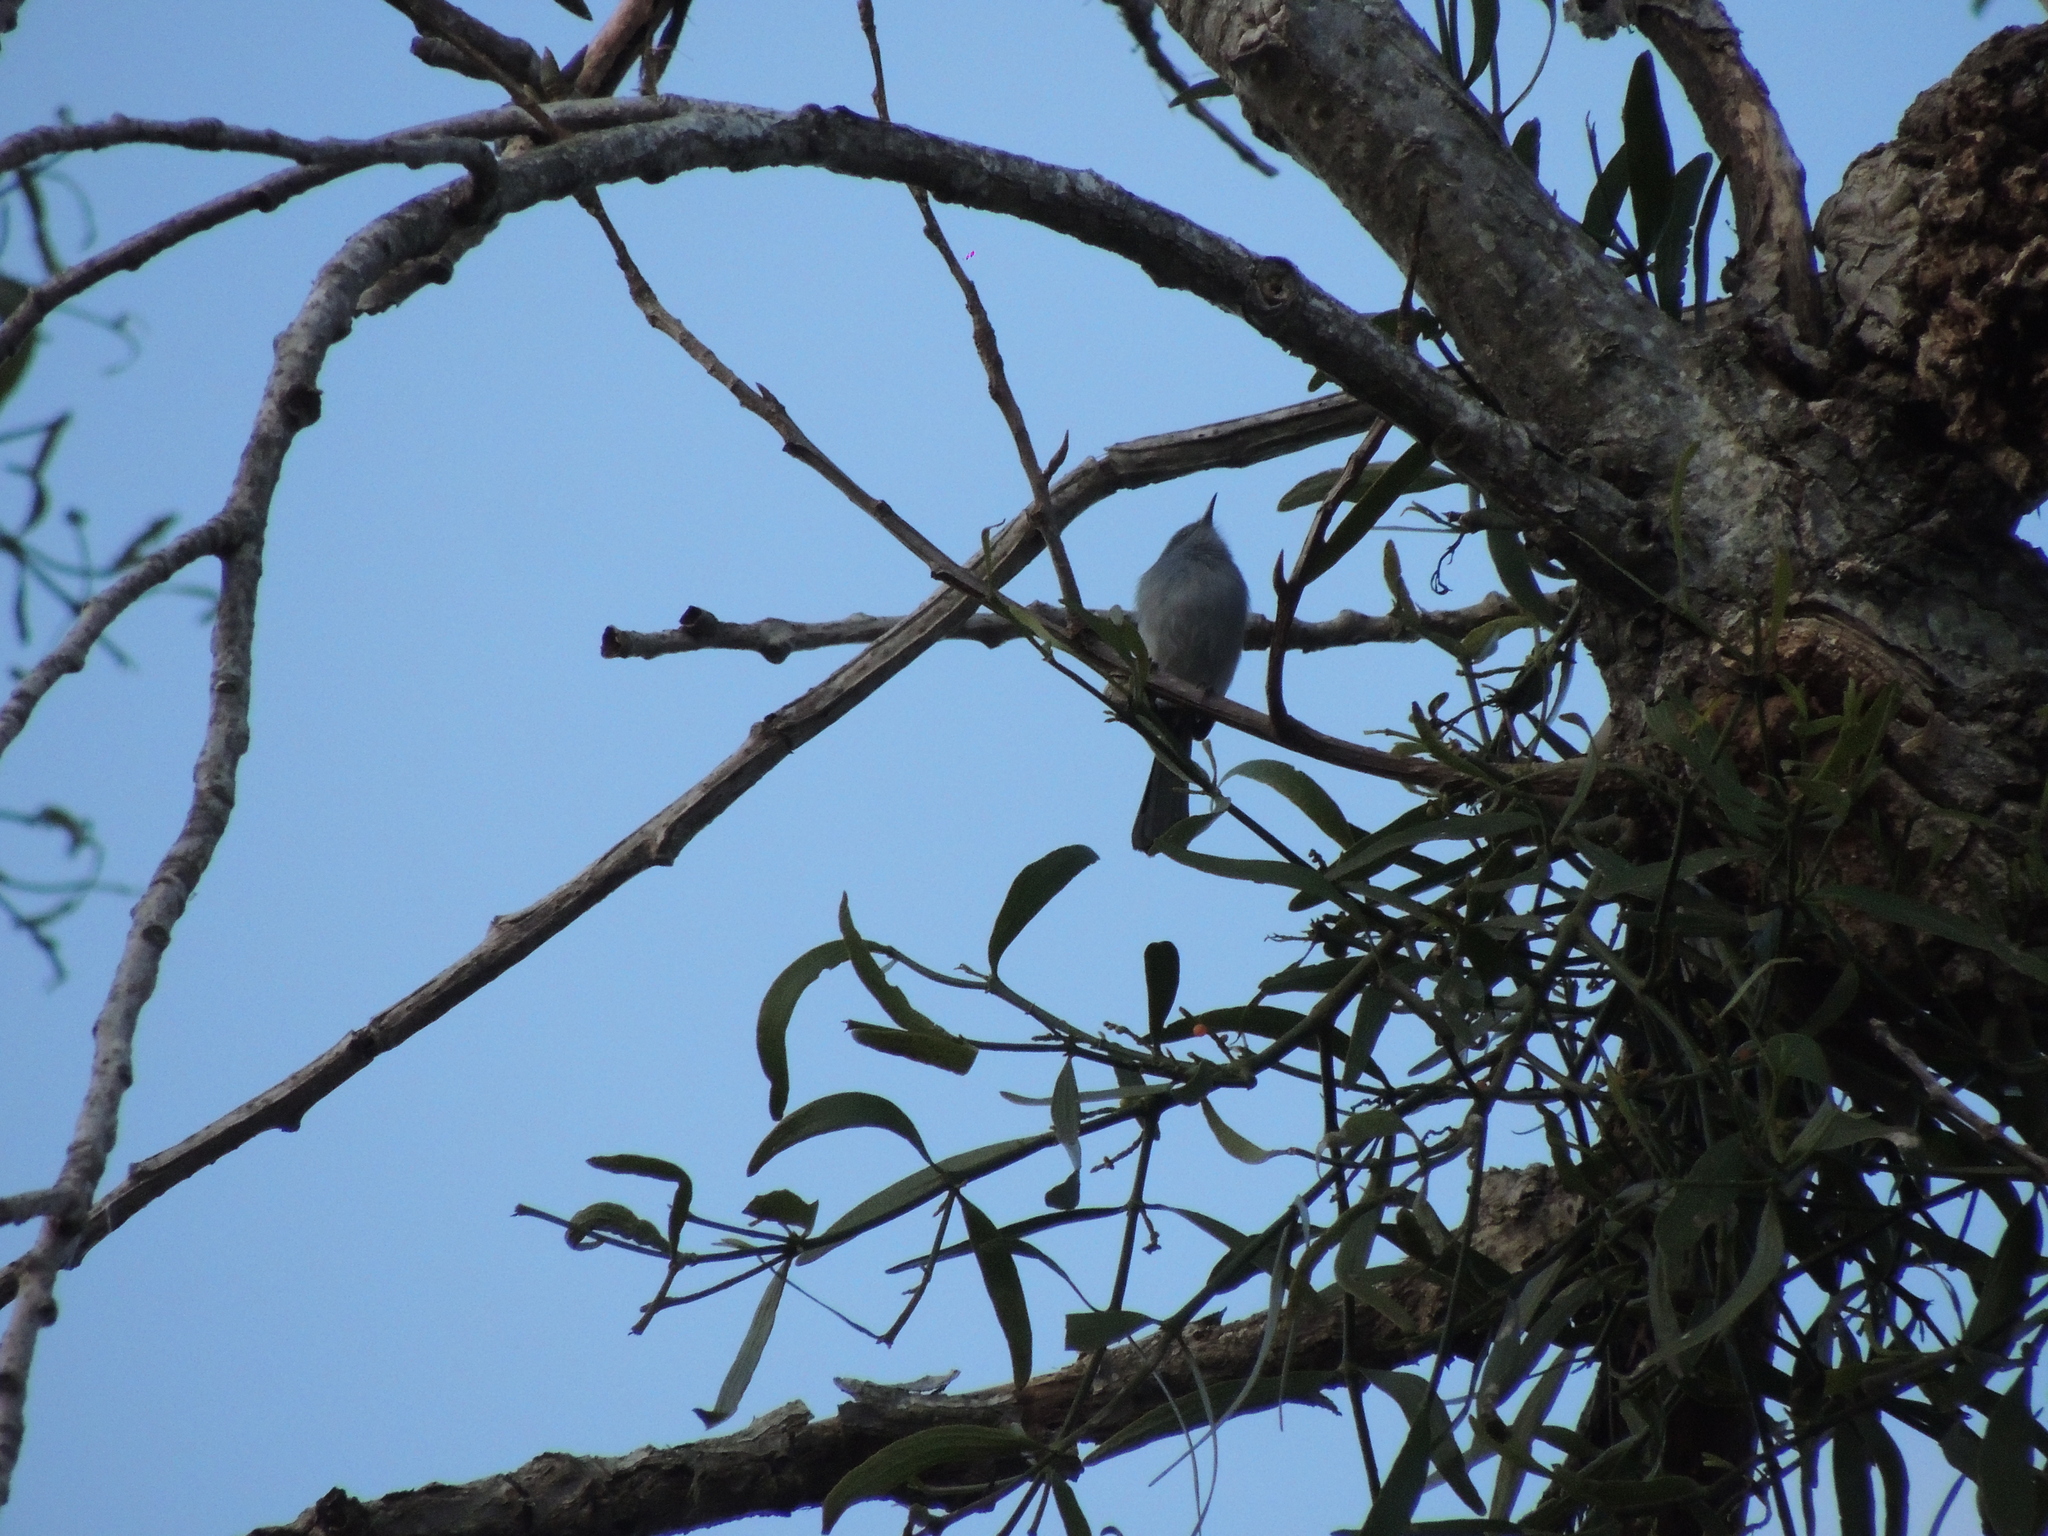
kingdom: Animalia
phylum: Chordata
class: Aves
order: Passeriformes
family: Polioptilidae
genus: Polioptila
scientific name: Polioptila dumicola
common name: Masked gnatcatcher
